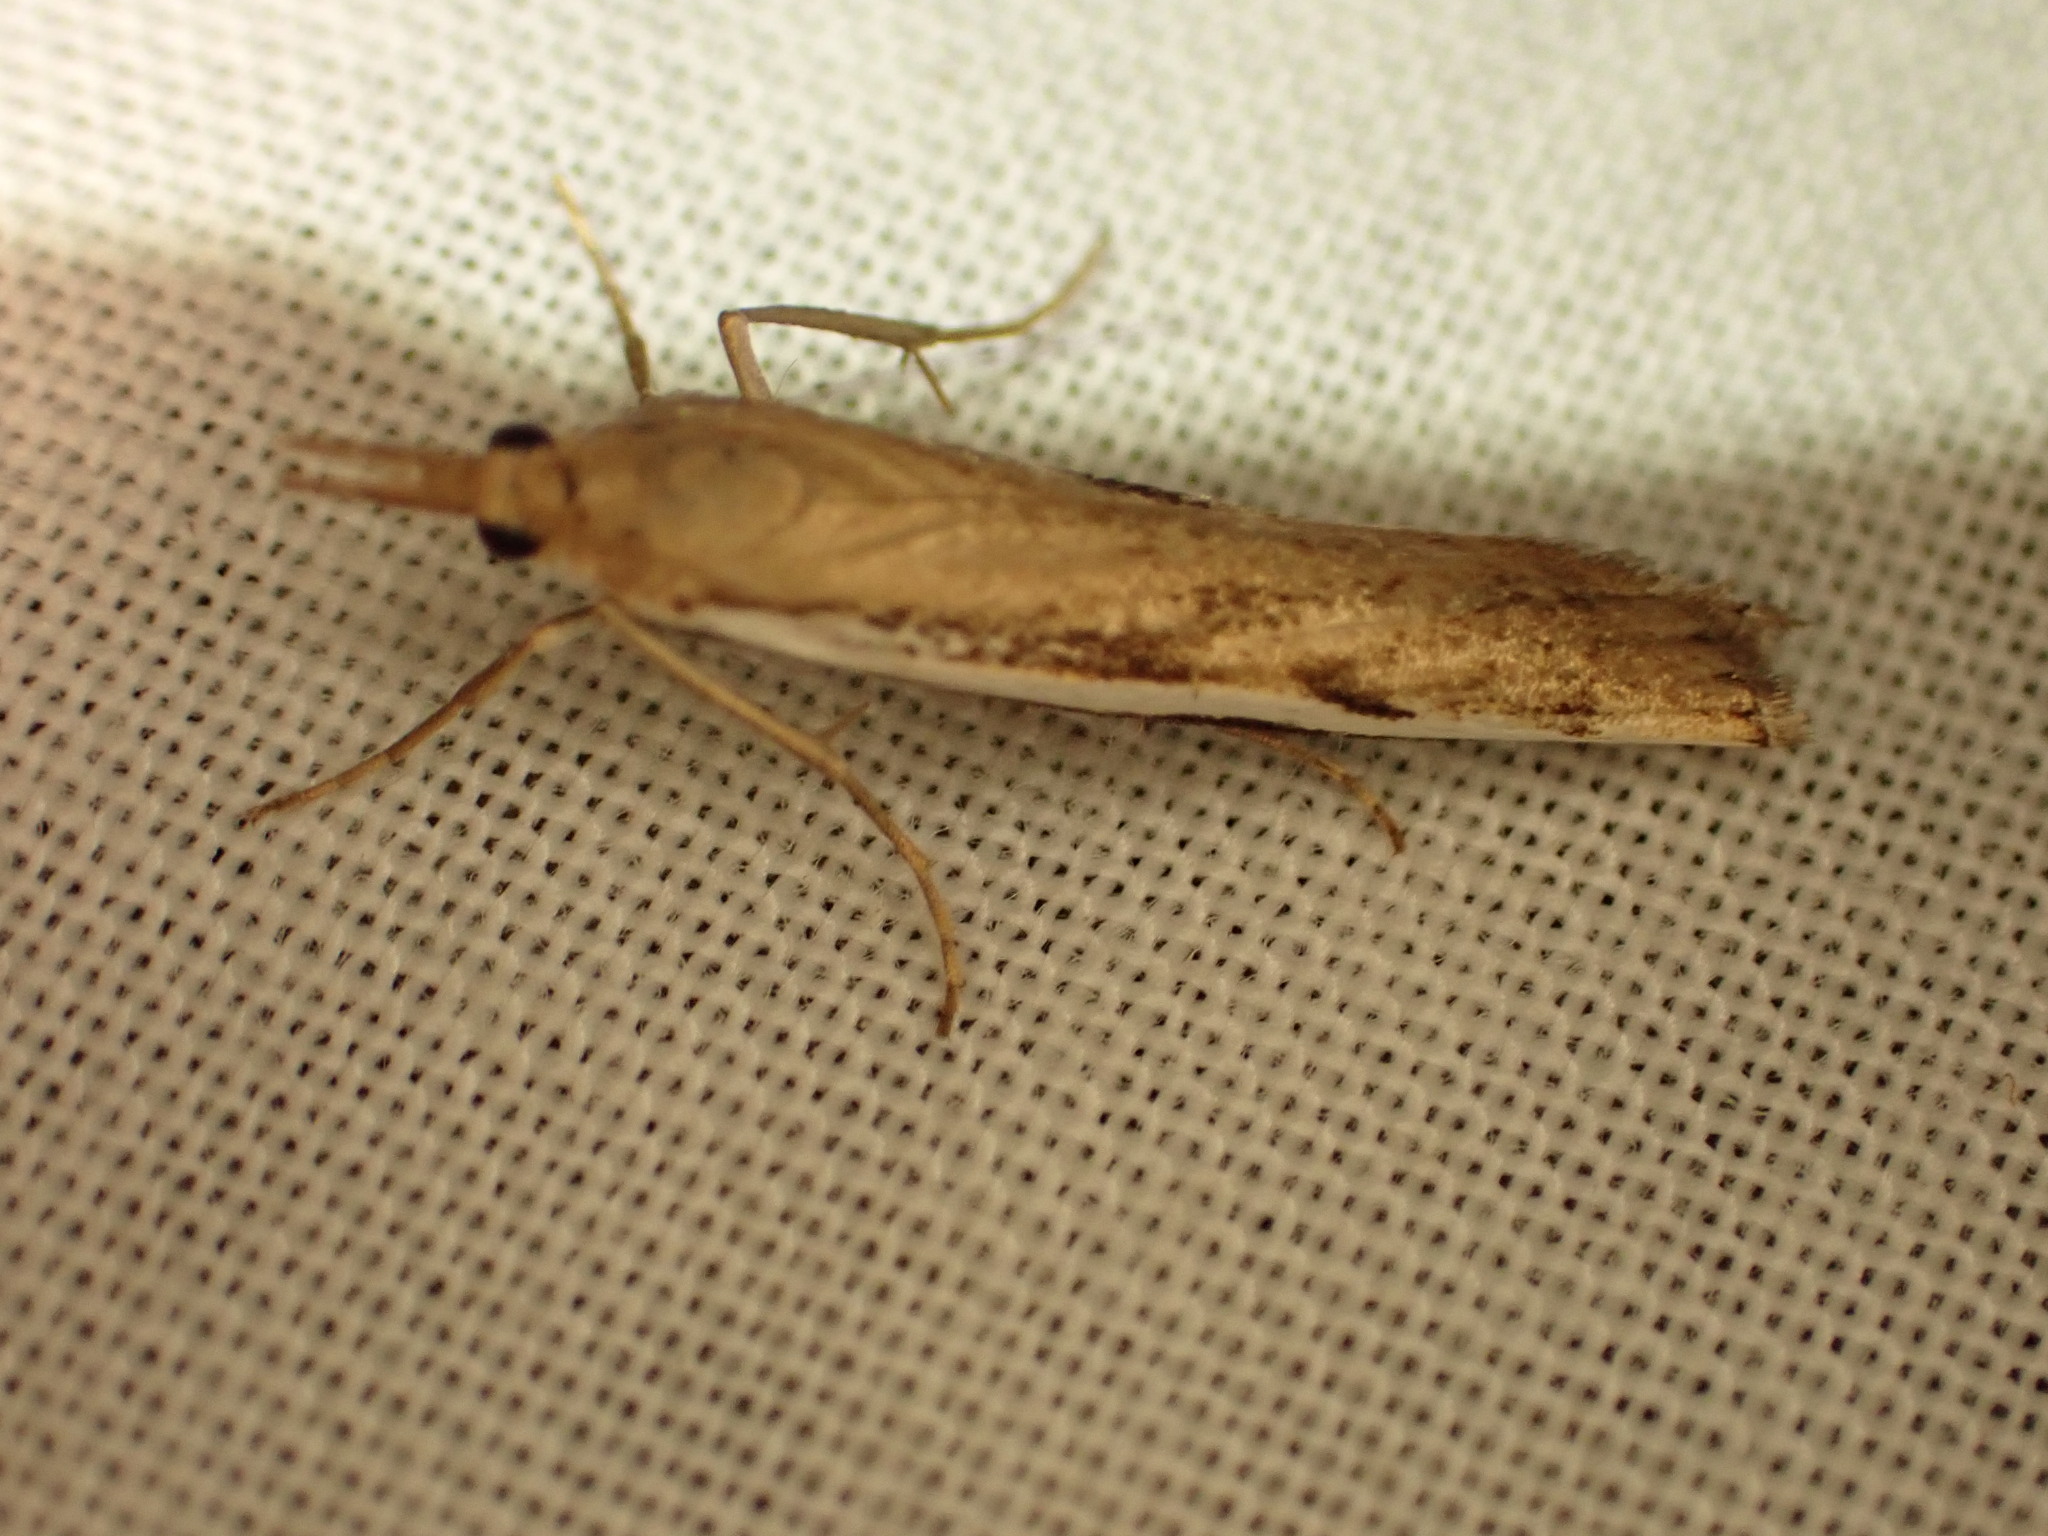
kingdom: Animalia
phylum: Arthropoda
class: Insecta
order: Lepidoptera
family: Crambidae
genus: Orocrambus
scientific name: Orocrambus flexuosellus
